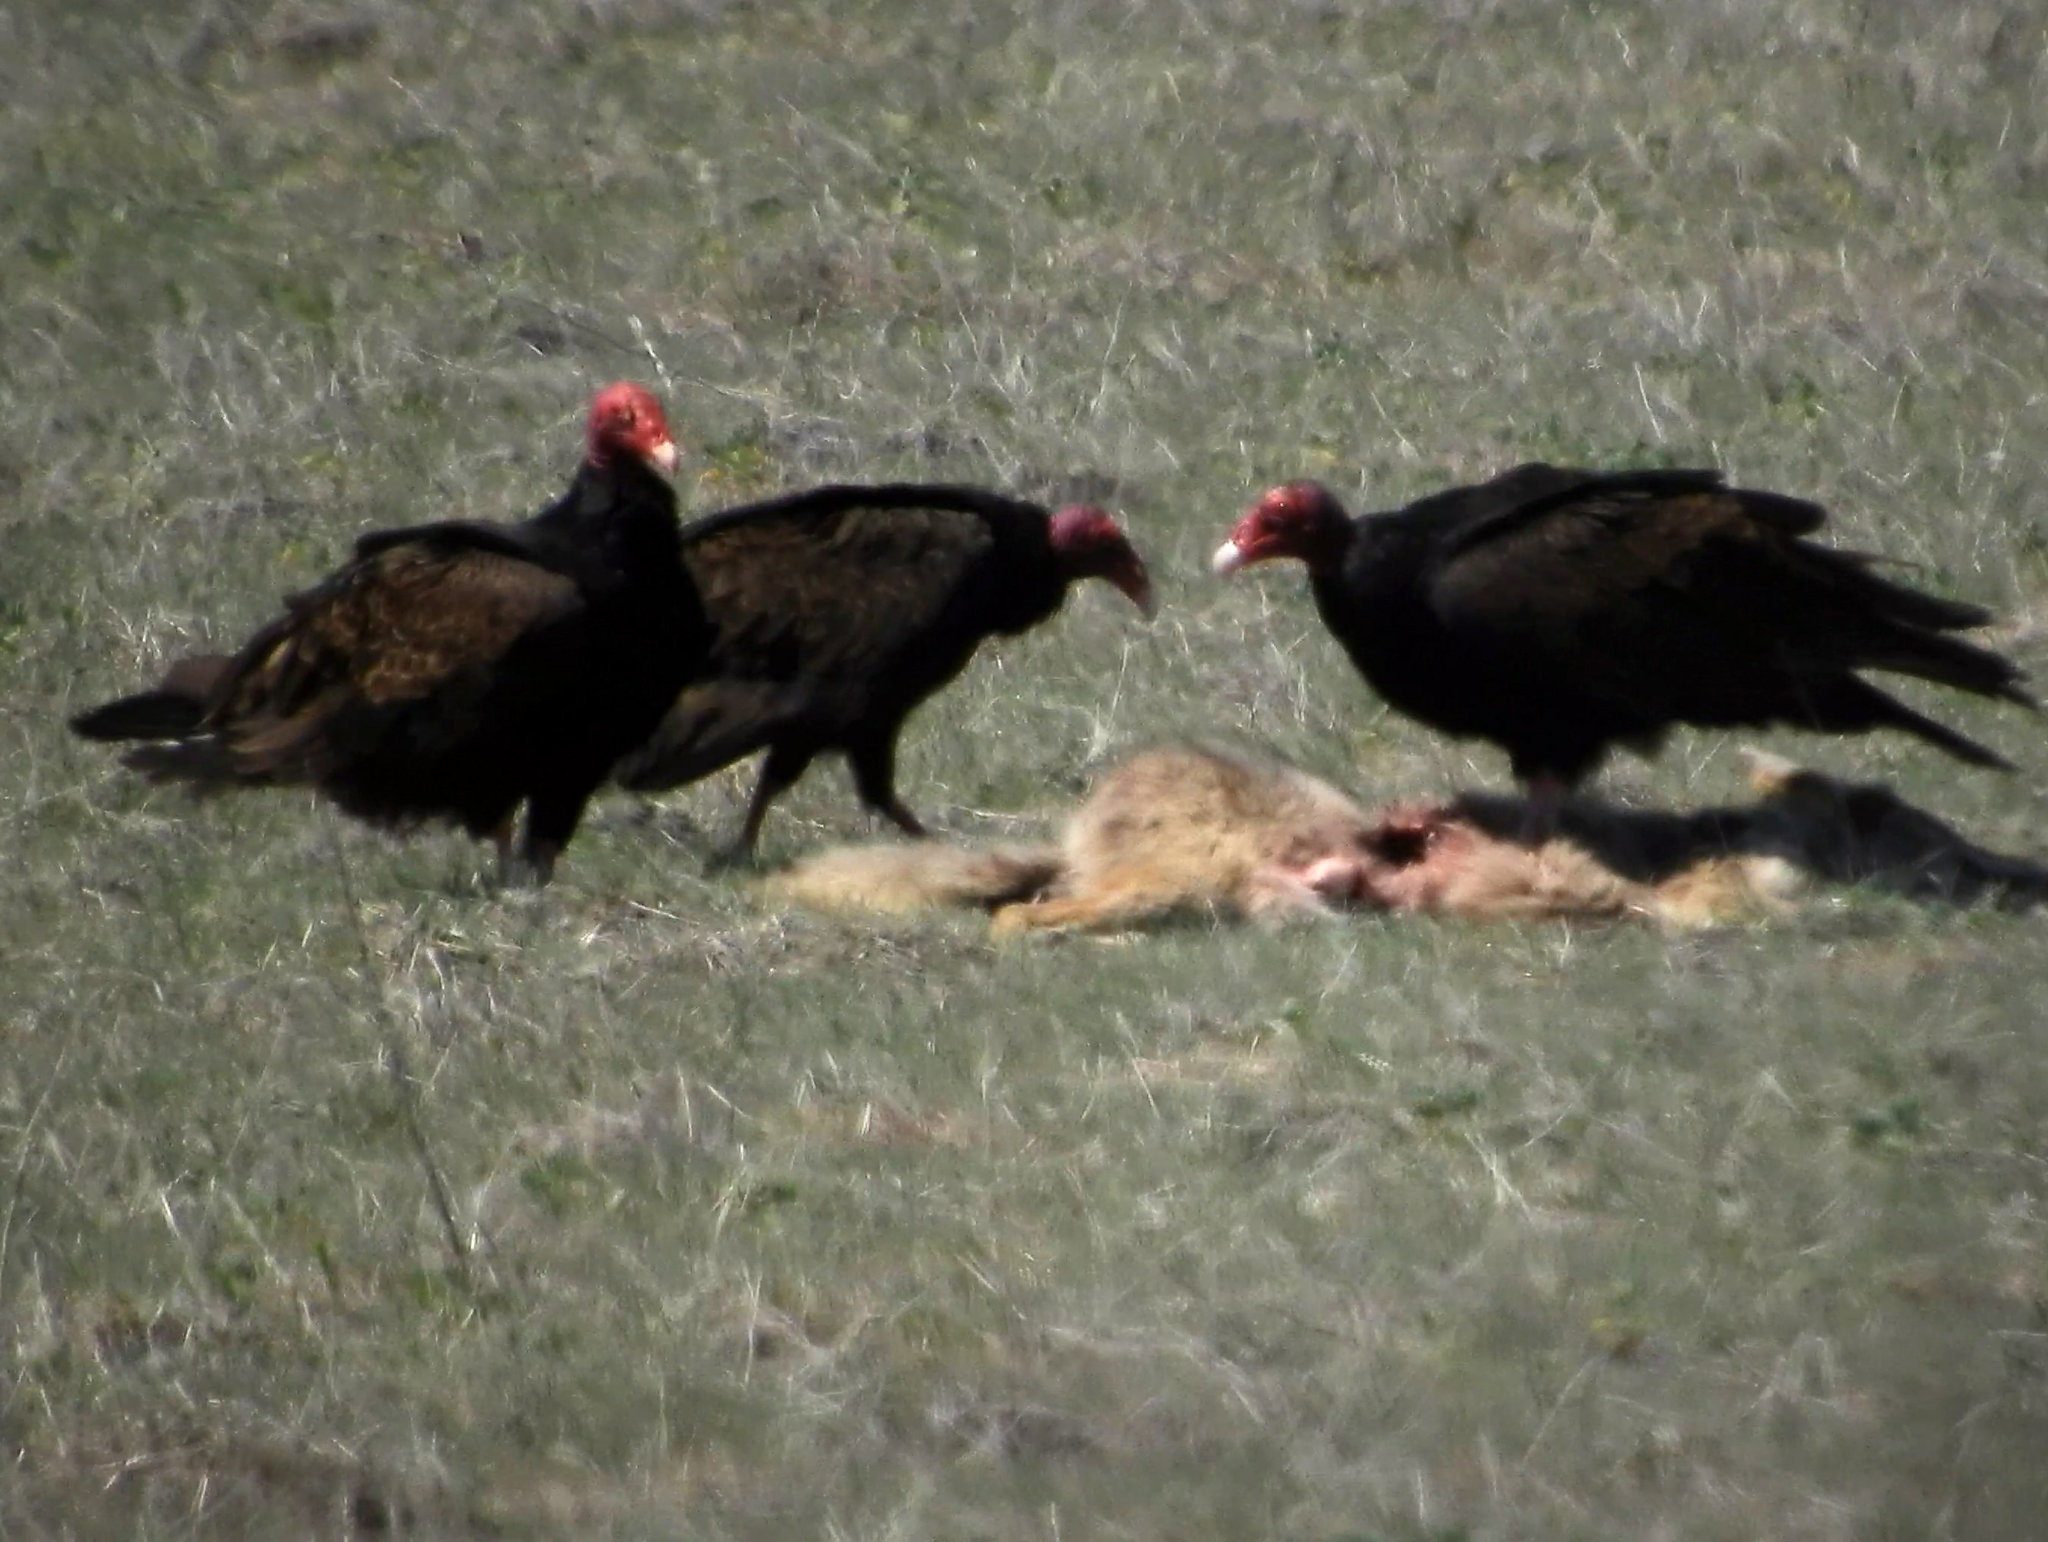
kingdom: Animalia
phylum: Chordata
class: Aves
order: Accipitriformes
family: Cathartidae
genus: Cathartes
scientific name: Cathartes aura
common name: Turkey vulture
